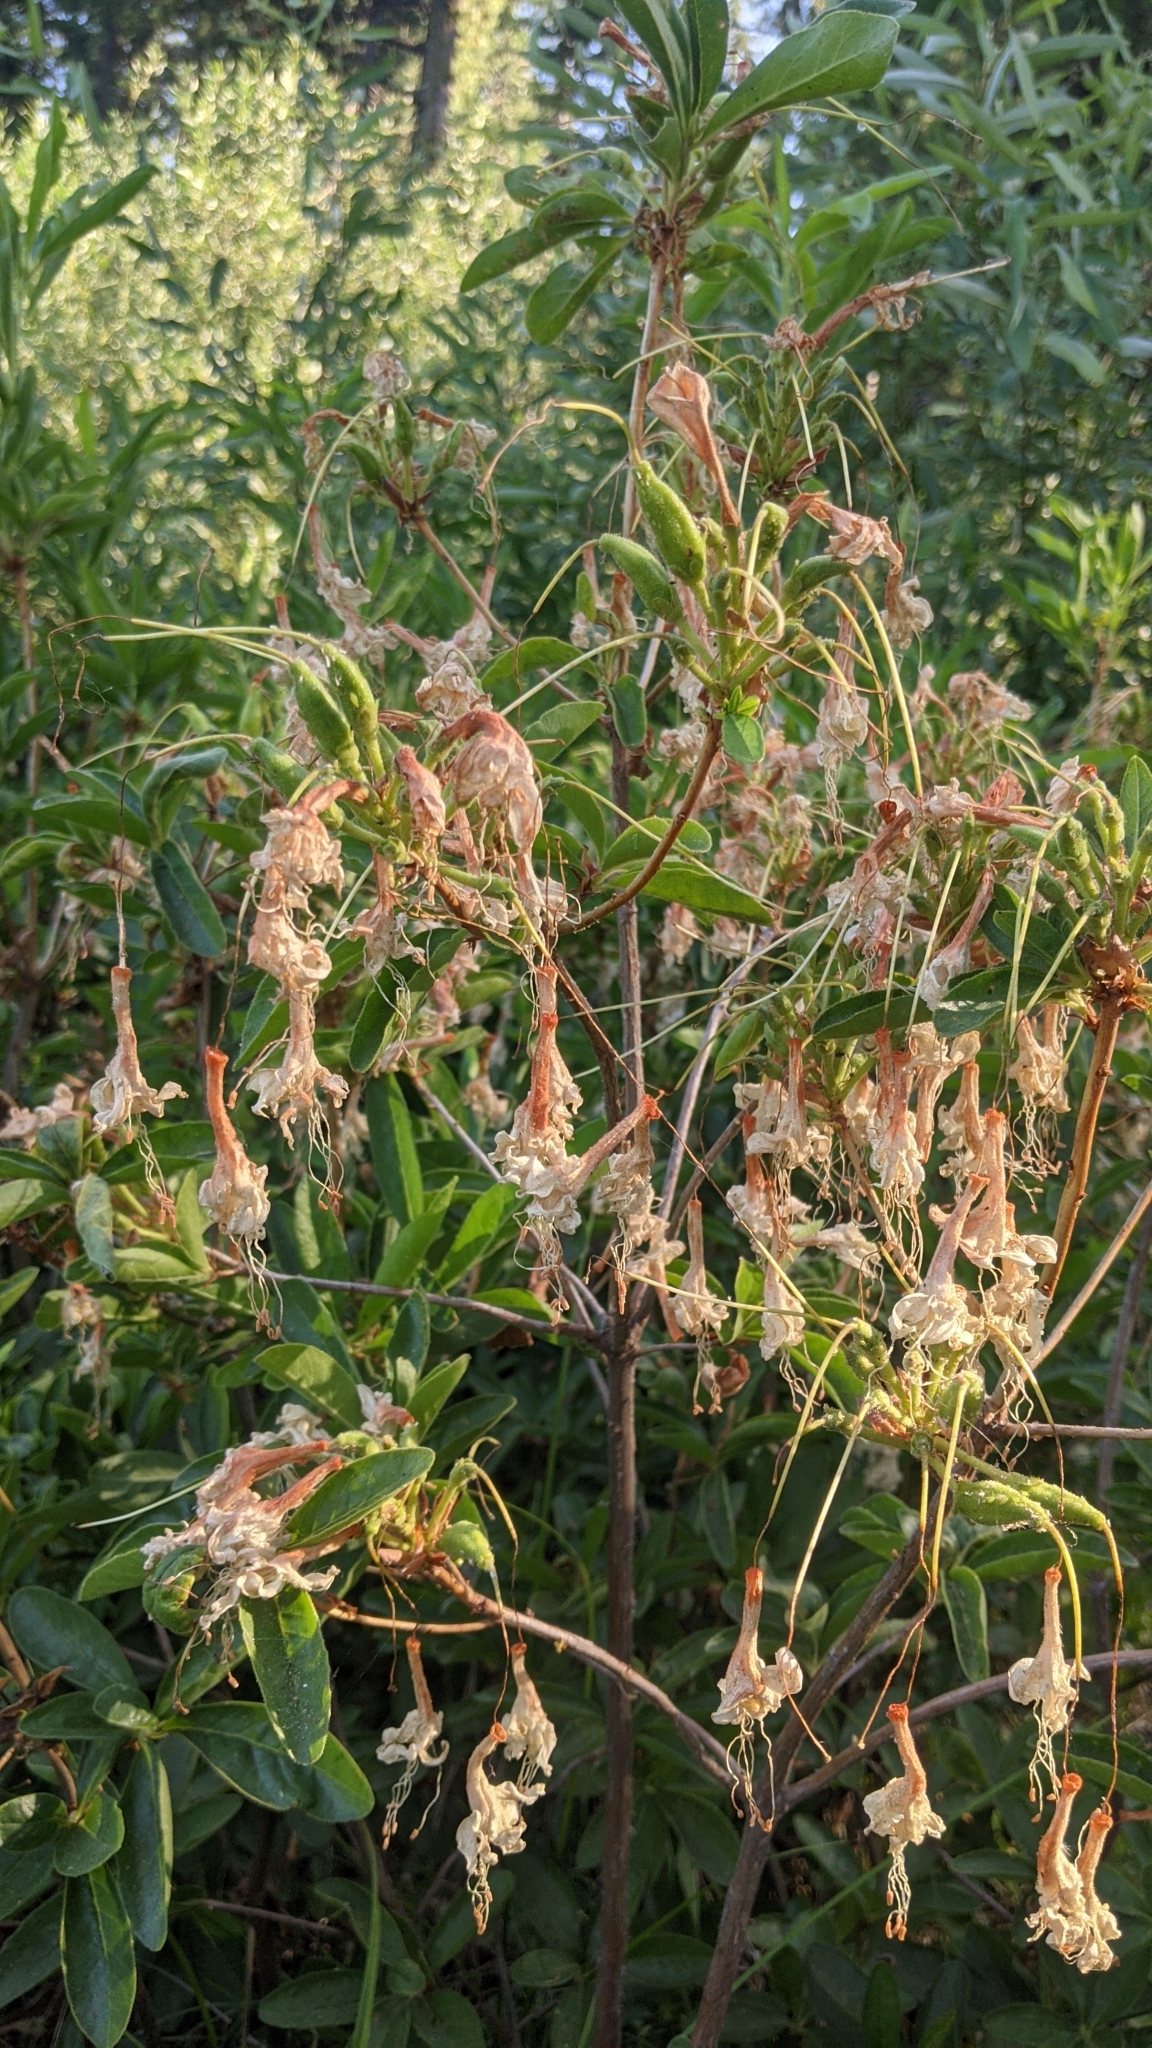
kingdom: Plantae
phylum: Tracheophyta
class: Magnoliopsida
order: Ericales
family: Ericaceae
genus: Rhododendron
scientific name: Rhododendron occidentale
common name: Western azalea
